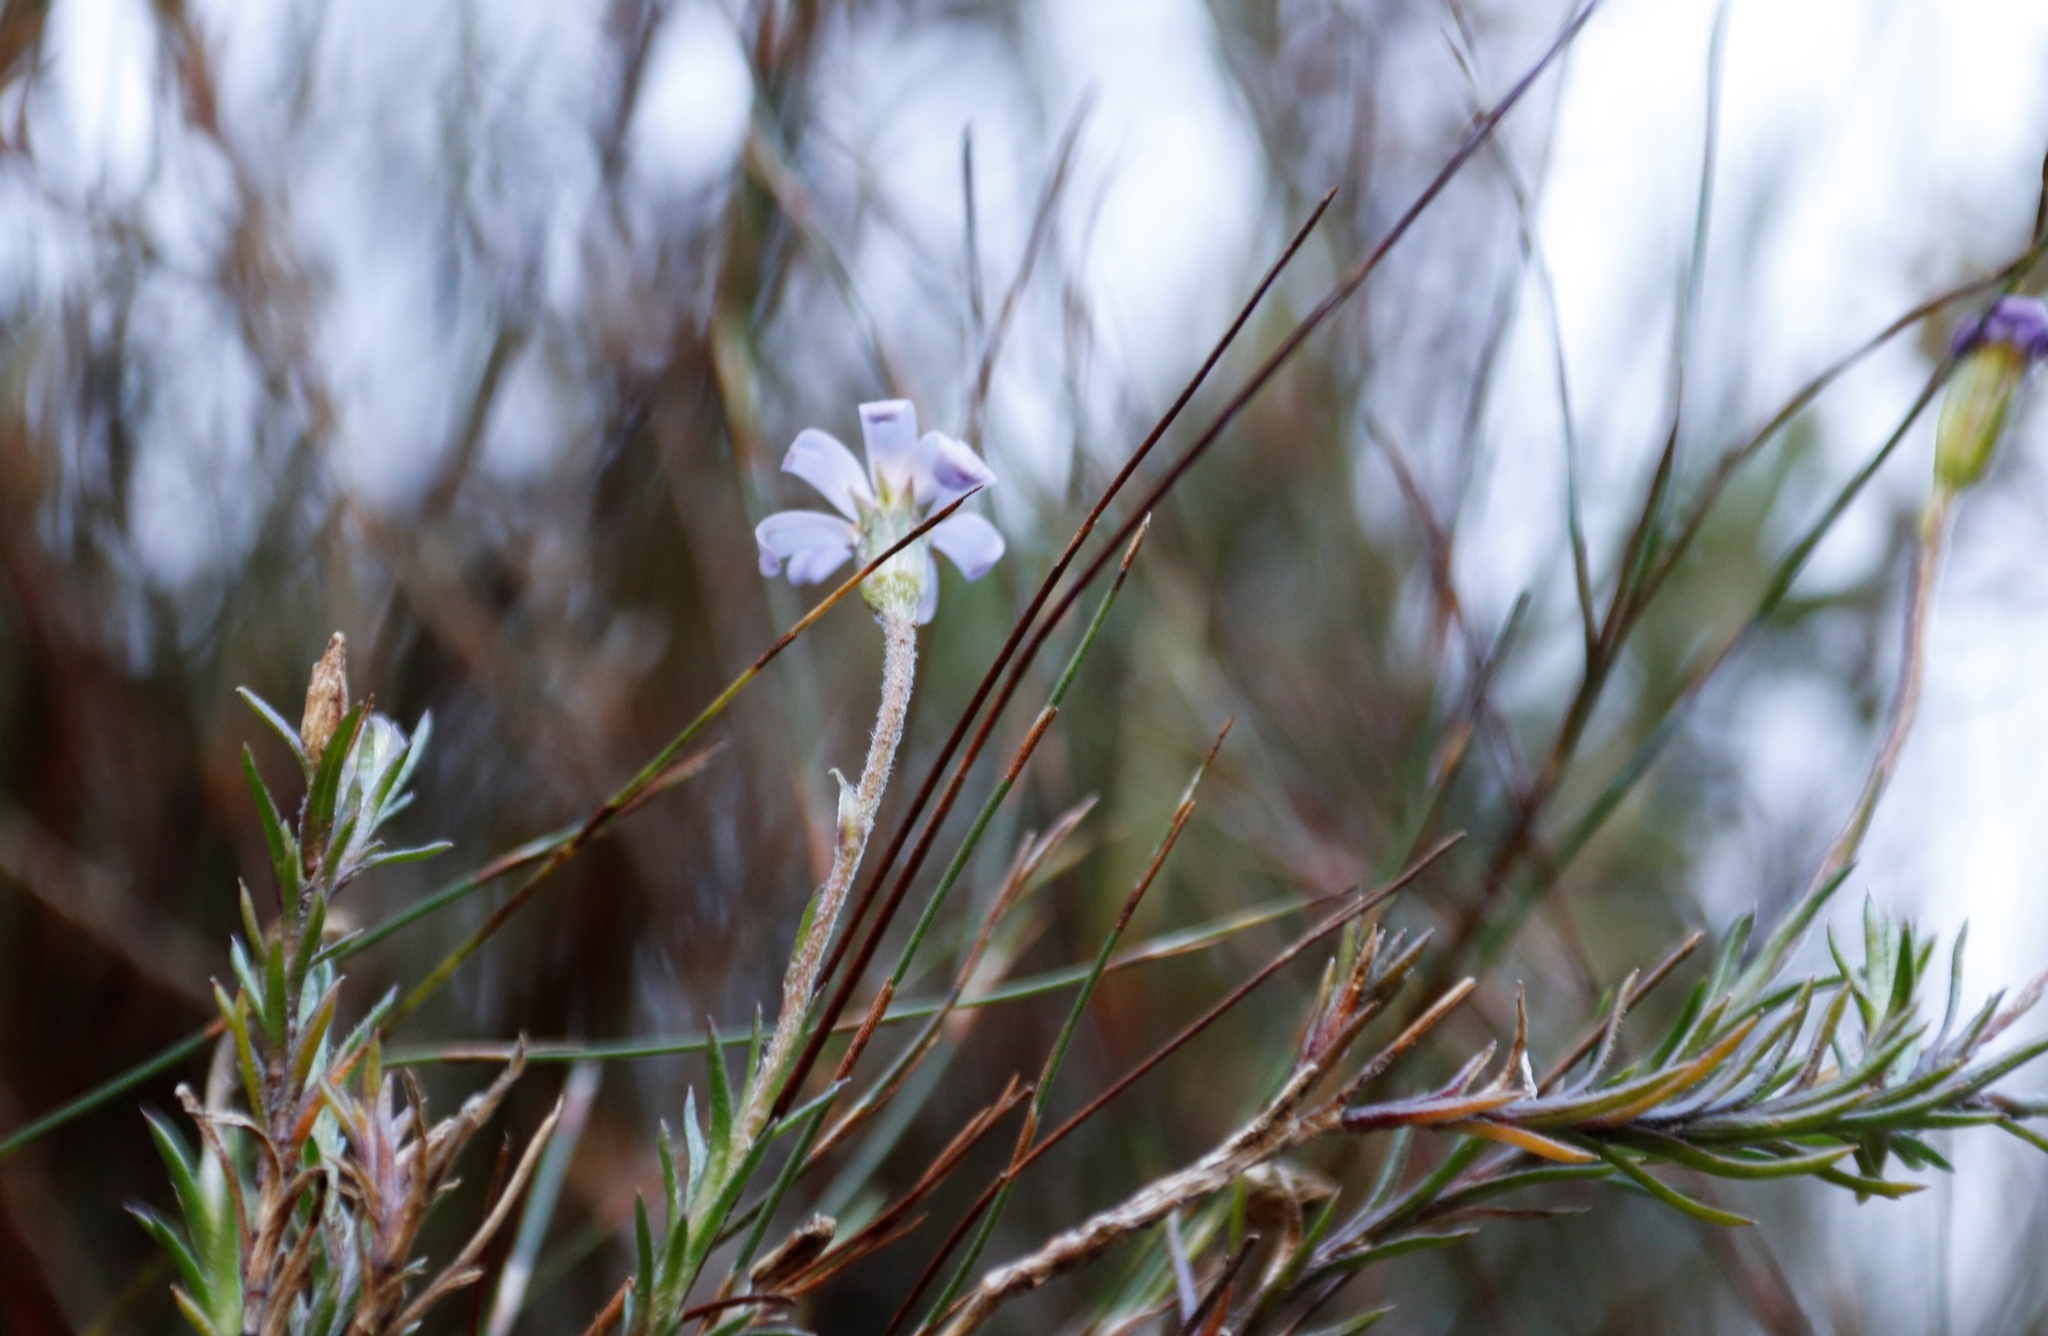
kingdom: Plantae
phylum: Tracheophyta
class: Magnoliopsida
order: Asterales
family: Asteraceae
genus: Zyrphelis
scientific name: Zyrphelis taxifolia
